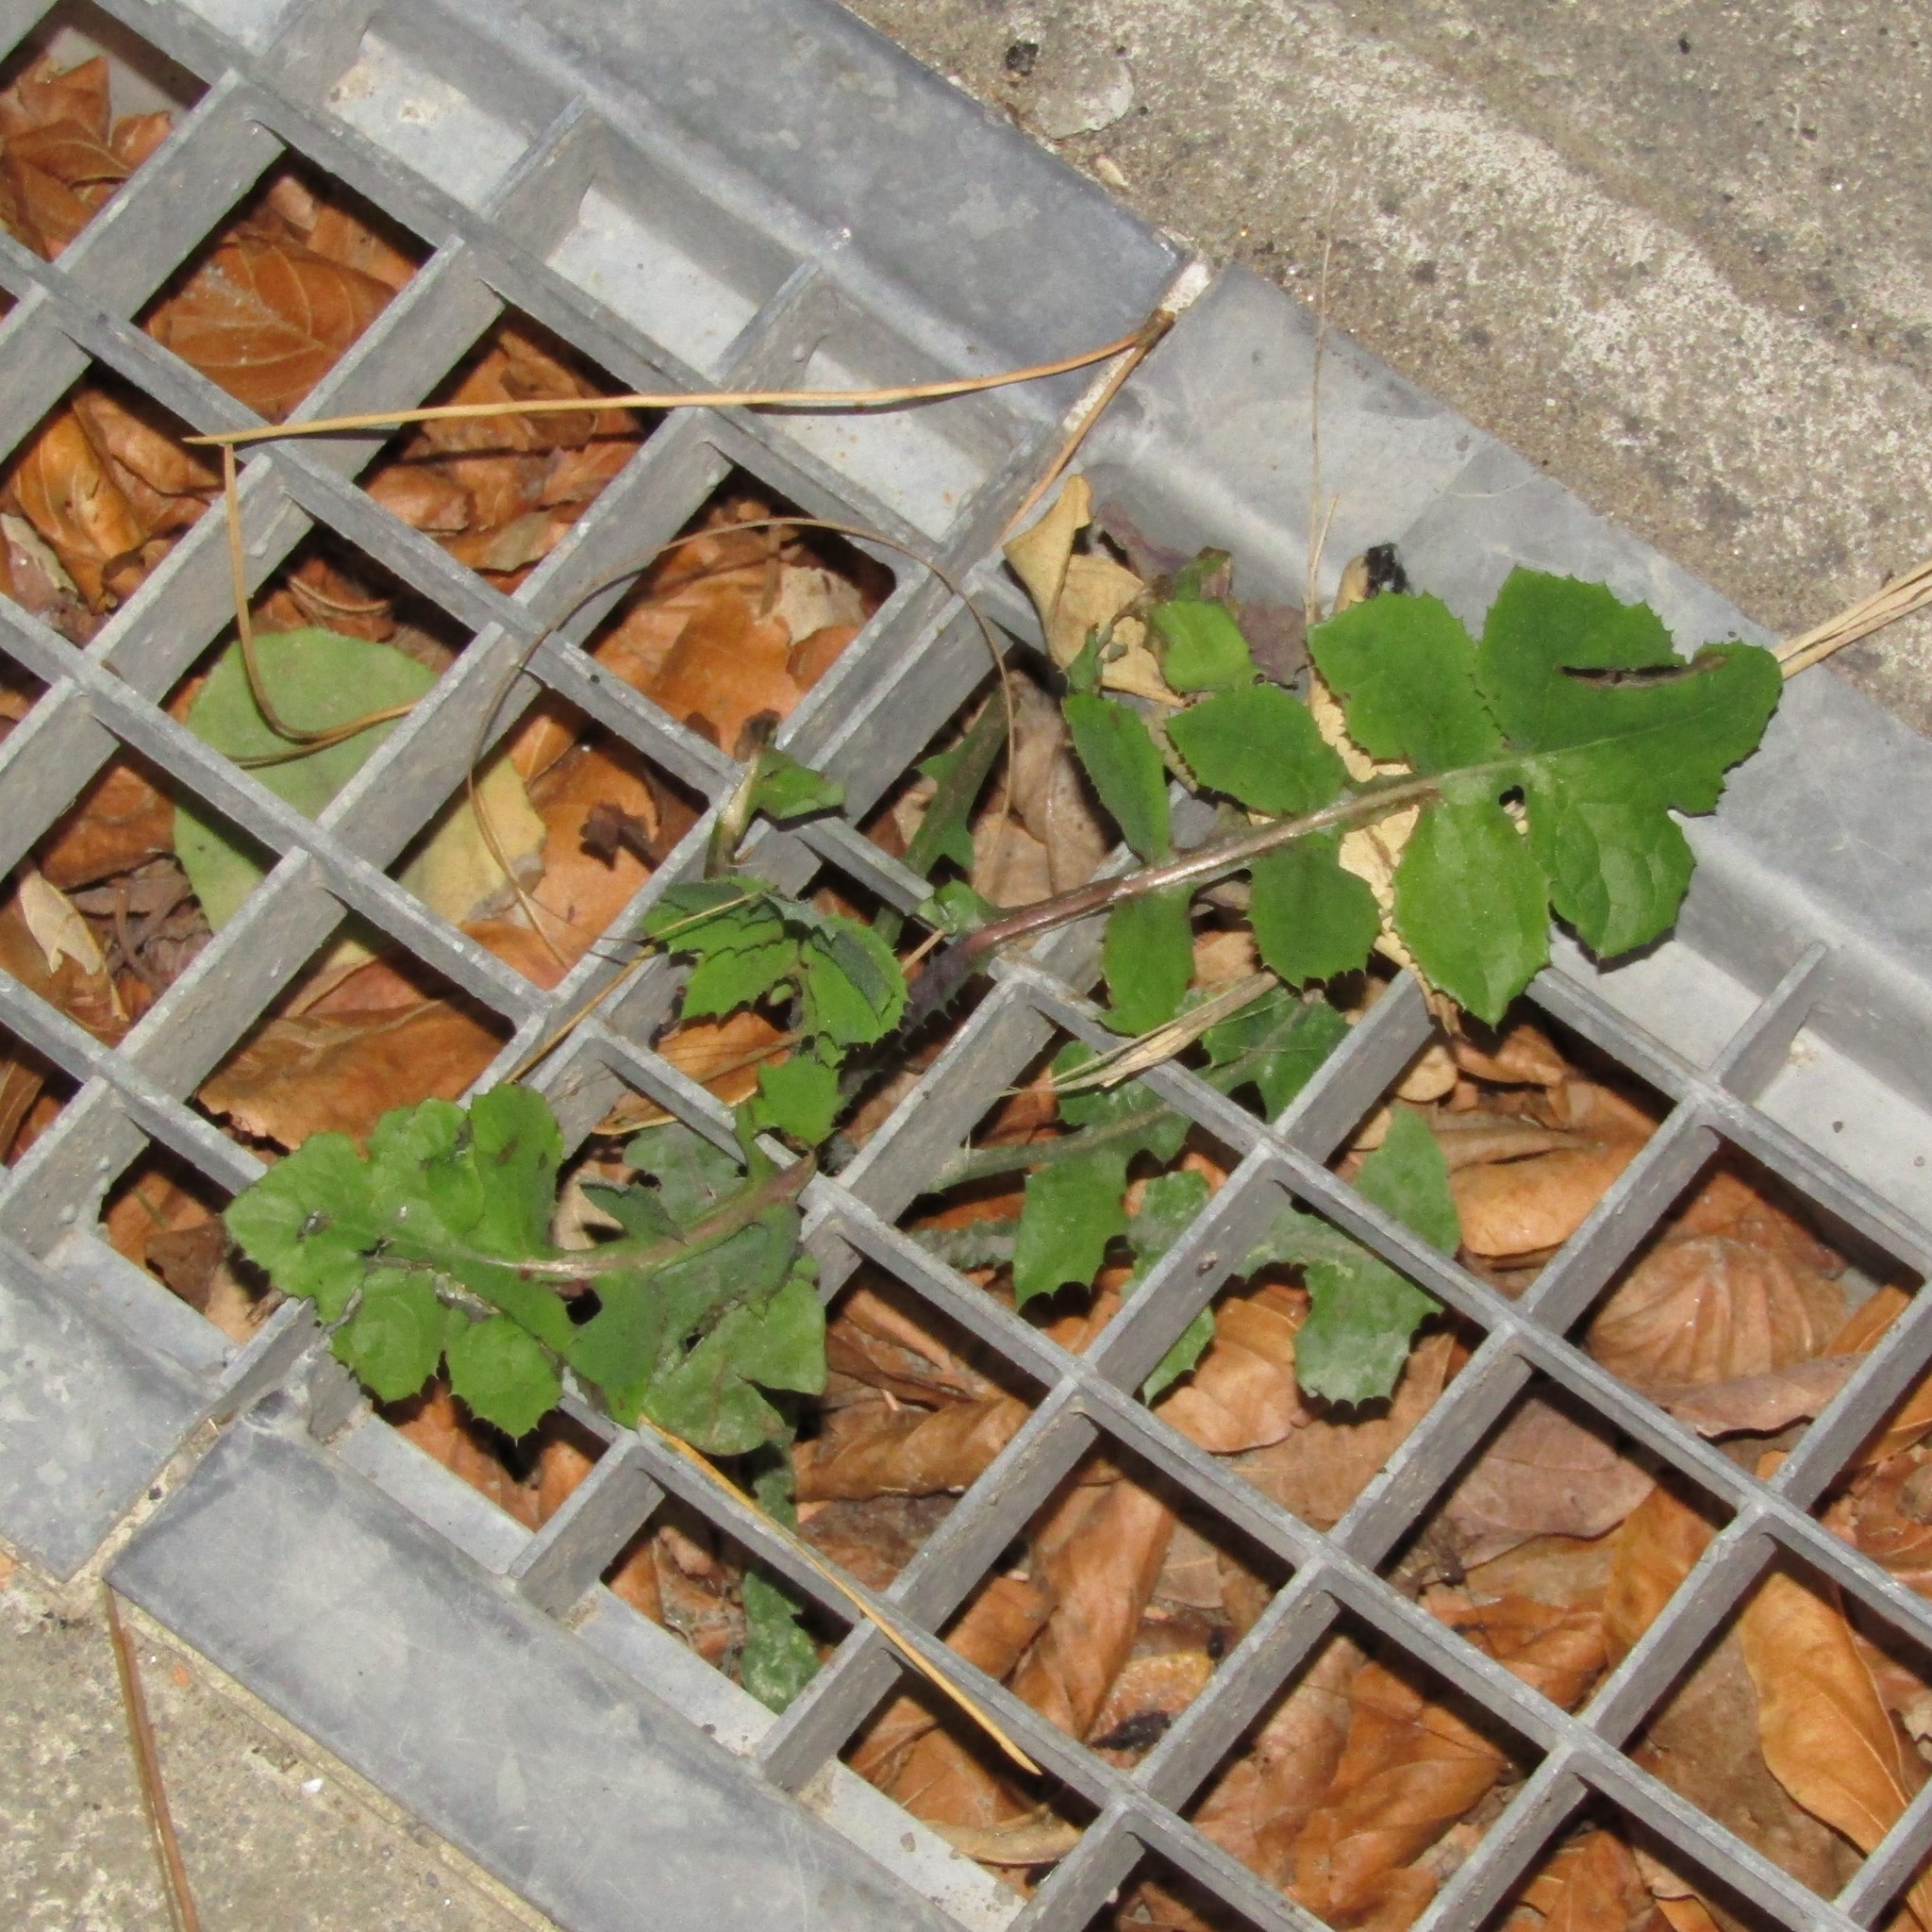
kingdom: Plantae
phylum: Tracheophyta
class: Magnoliopsida
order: Asterales
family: Asteraceae
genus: Sonchus
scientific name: Sonchus oleraceus
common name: Common sowthistle
